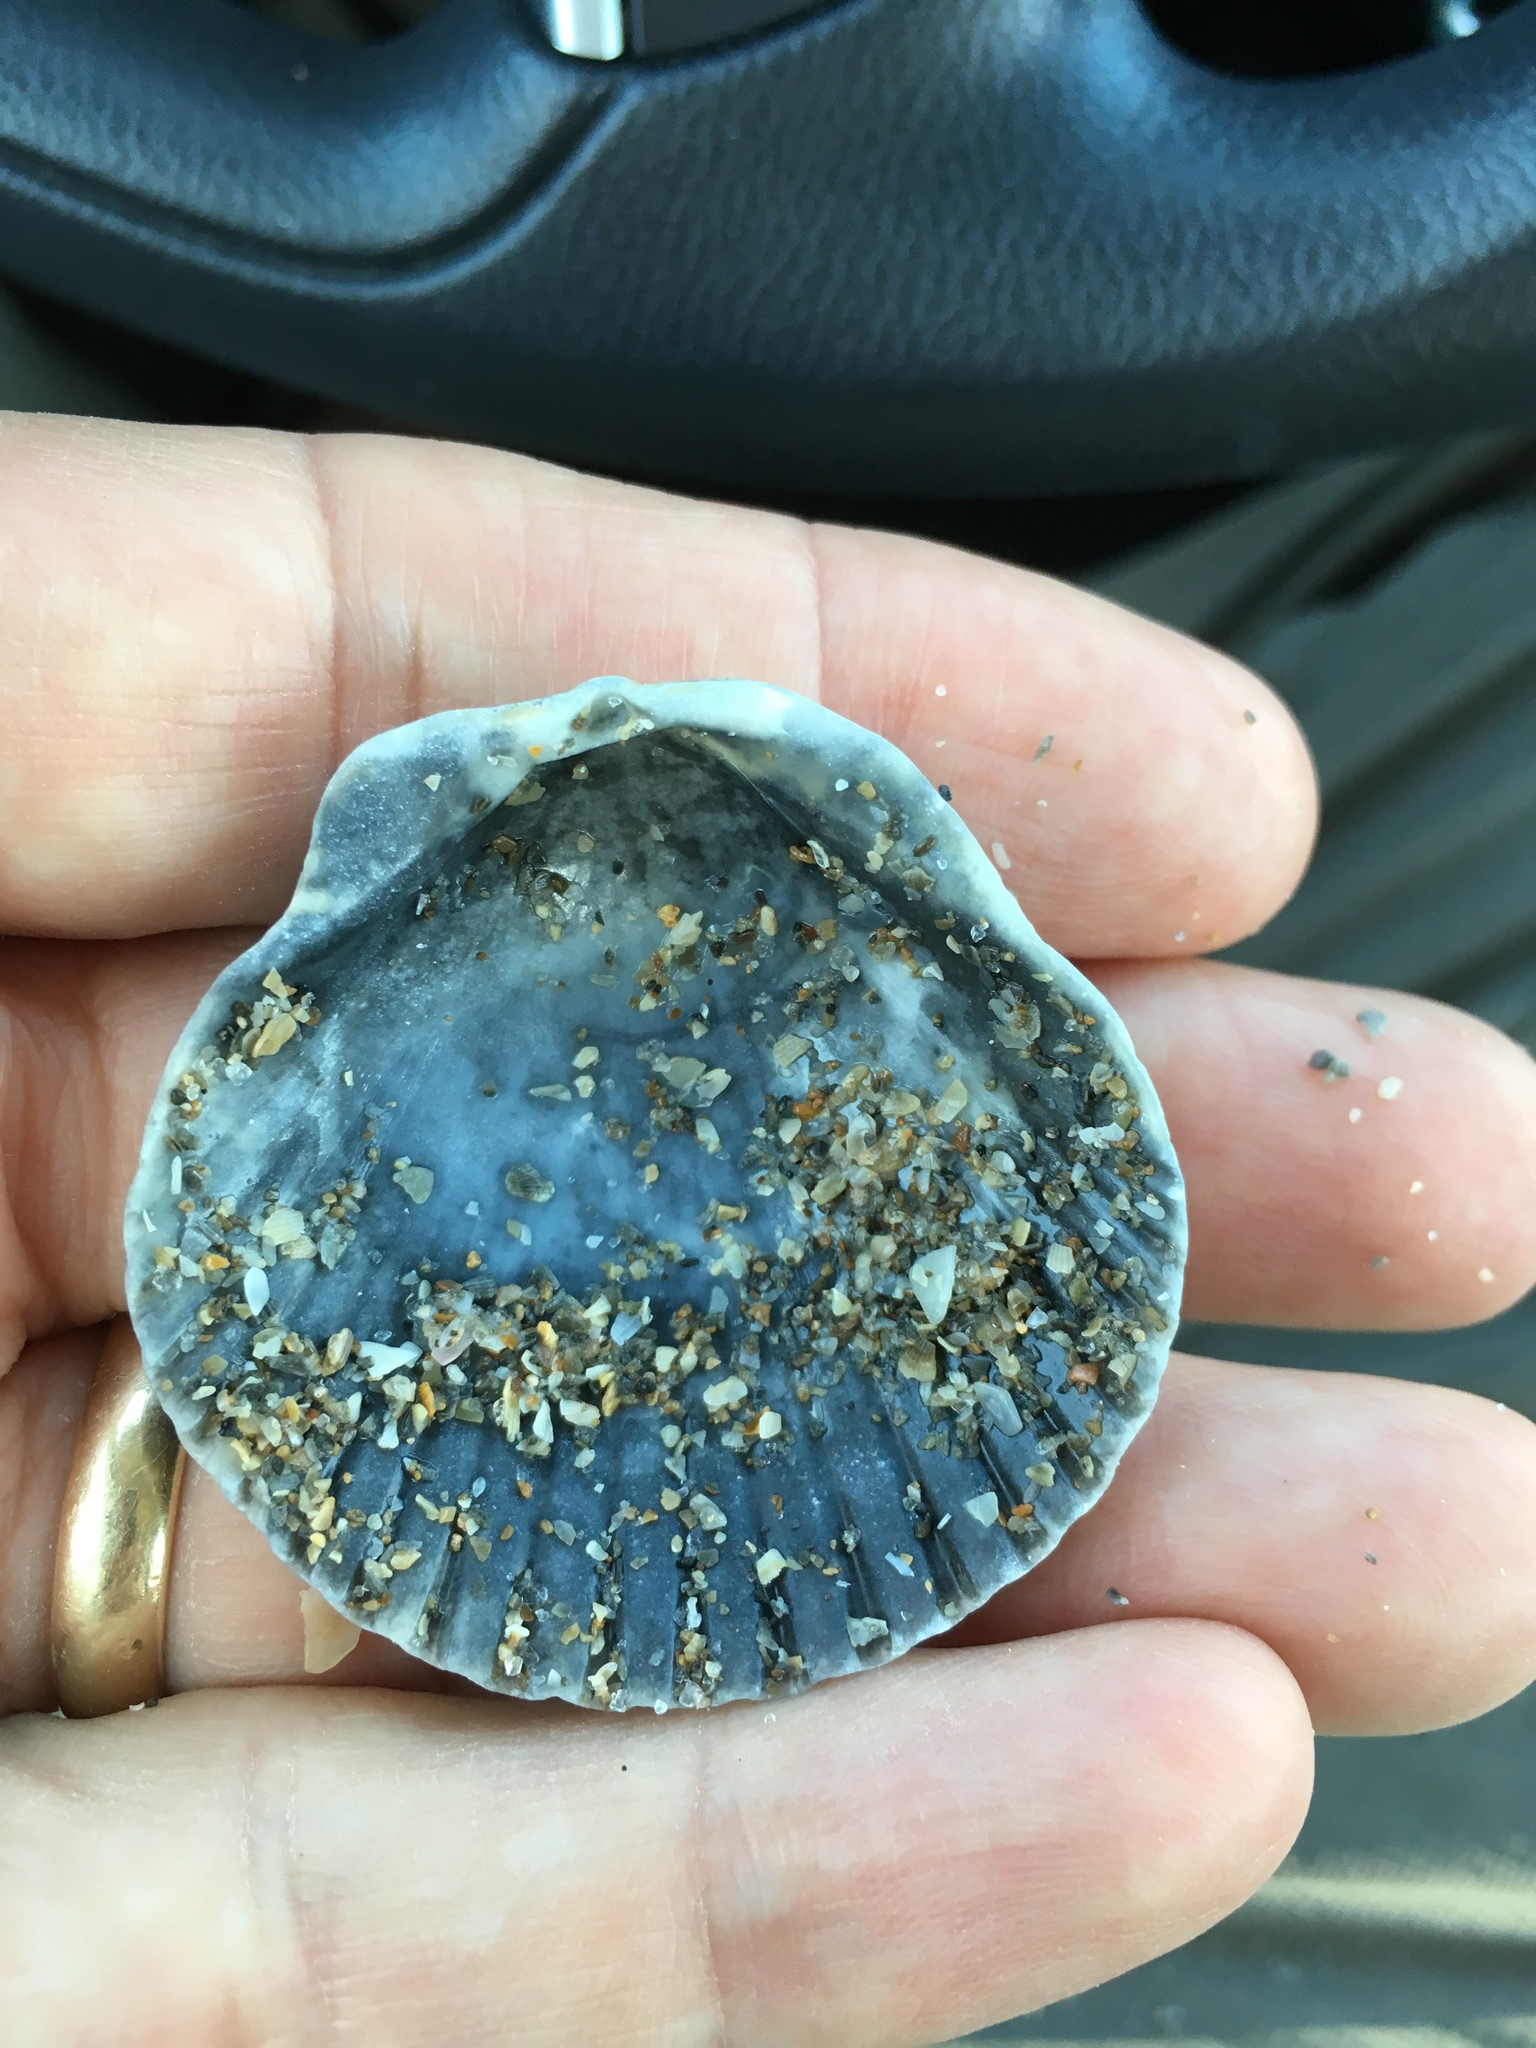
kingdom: Animalia
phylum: Mollusca
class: Bivalvia
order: Pectinida
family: Pectinidae
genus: Argopecten
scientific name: Argopecten gibbus
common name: Atlantic calico scallop
